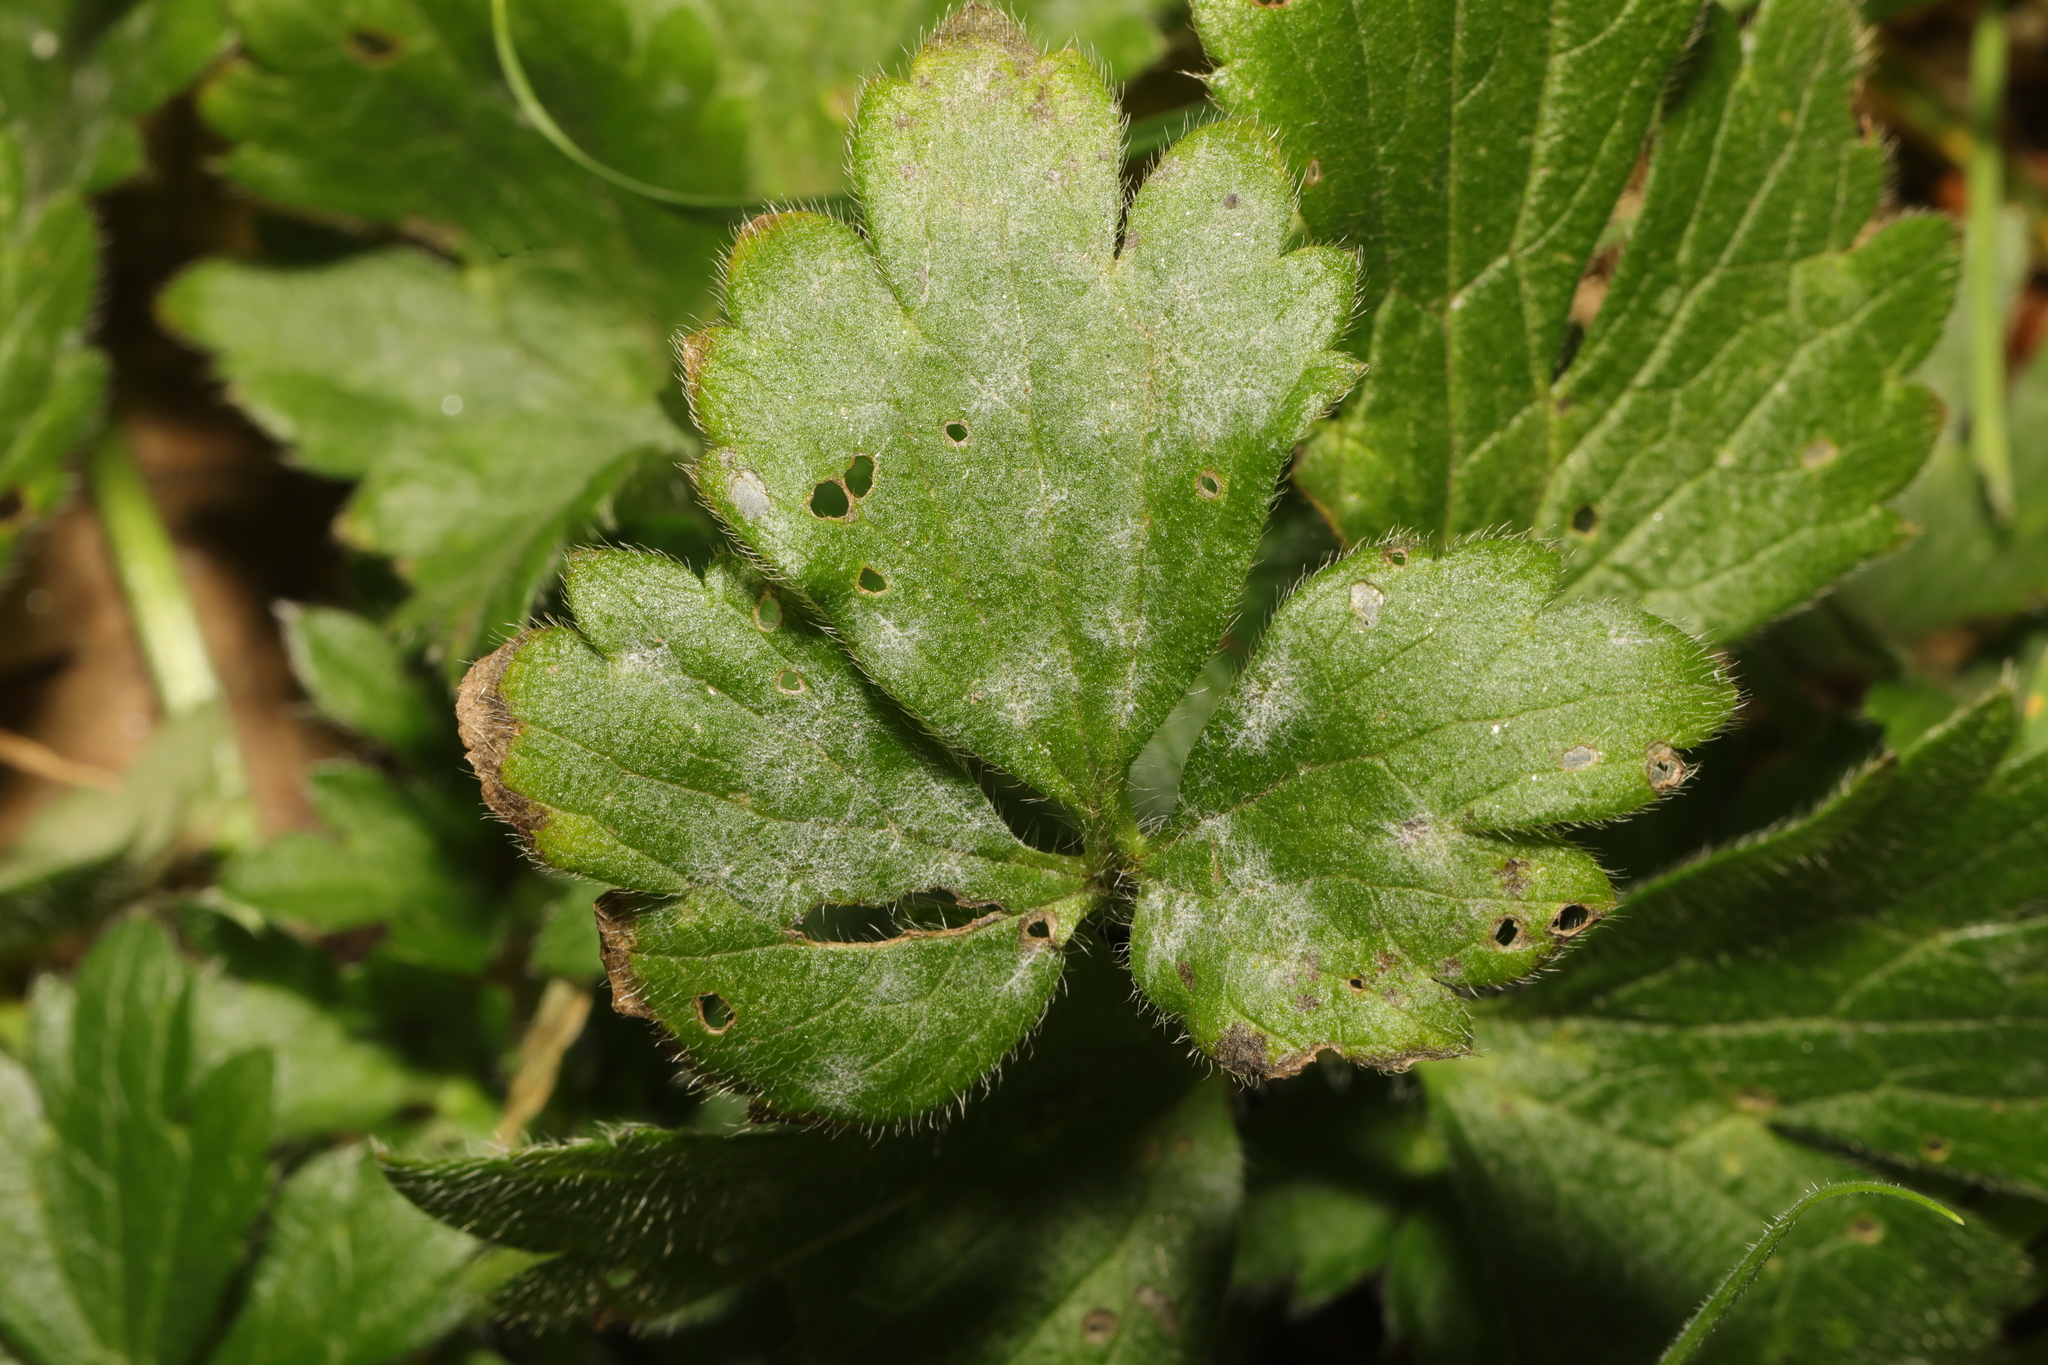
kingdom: Plantae
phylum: Tracheophyta
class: Magnoliopsida
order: Ranunculales
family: Ranunculaceae
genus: Ranunculus
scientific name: Ranunculus repens
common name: Creeping buttercup
